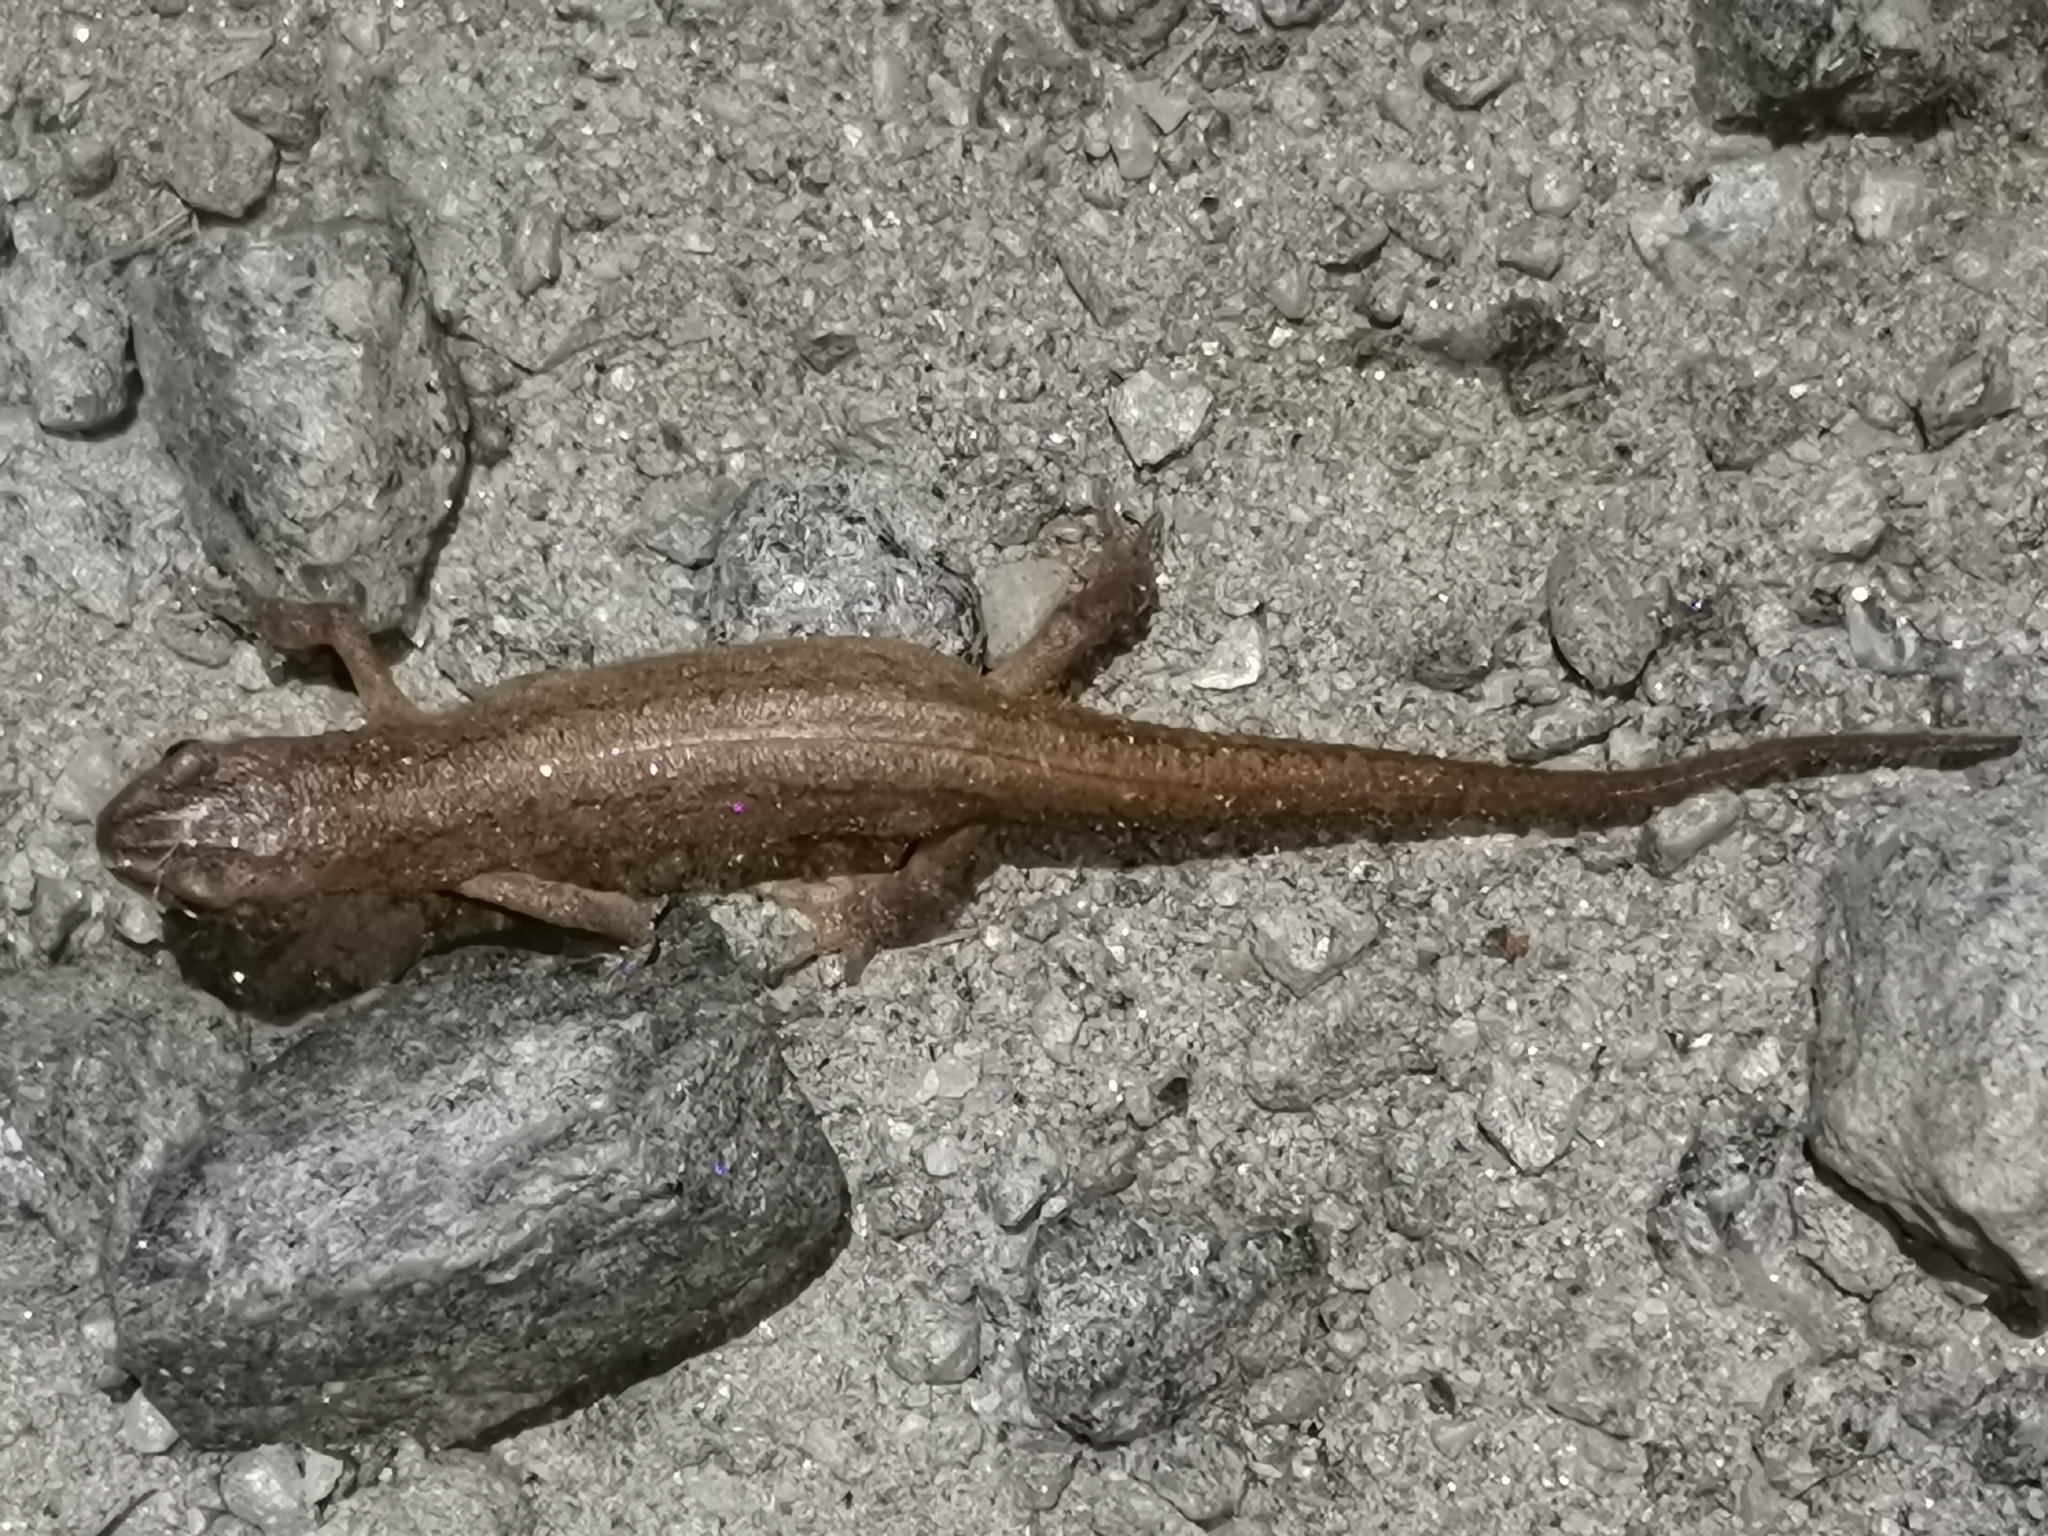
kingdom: Animalia
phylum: Chordata
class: Amphibia
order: Caudata
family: Salamandridae
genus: Lissotriton
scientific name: Lissotriton vulgaris
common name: Smooth newt
